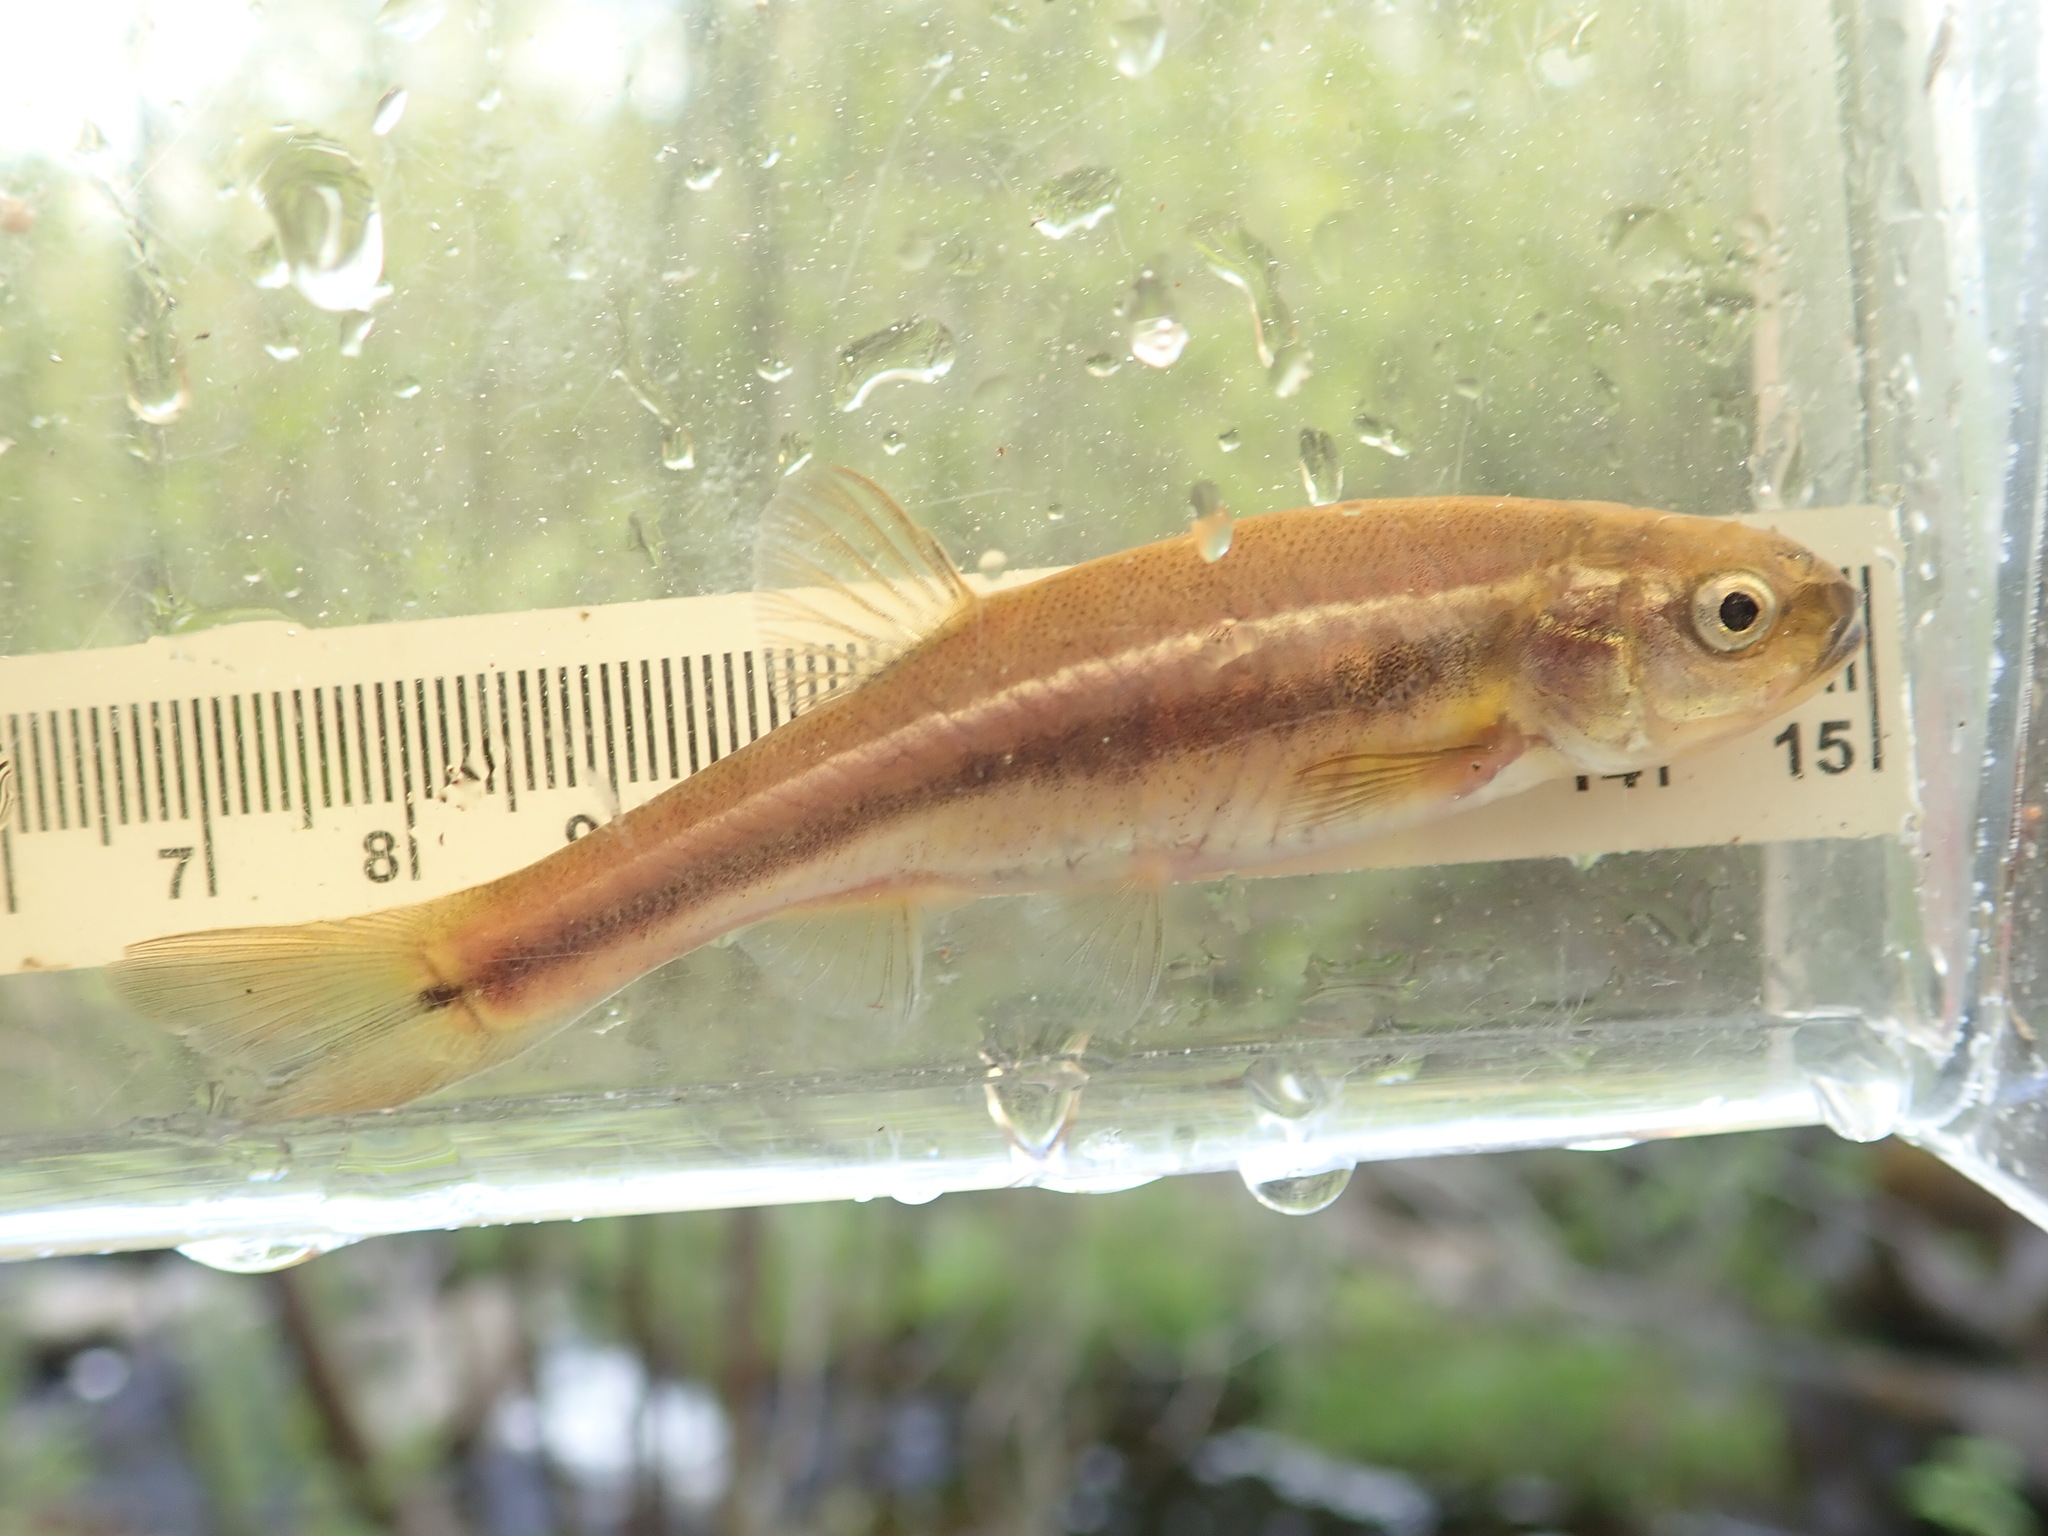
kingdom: Animalia
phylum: Chordata
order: Cypriniformes
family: Cyprinidae
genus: Chrosomus
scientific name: Chrosomus neogaeus
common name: Finescale dace
